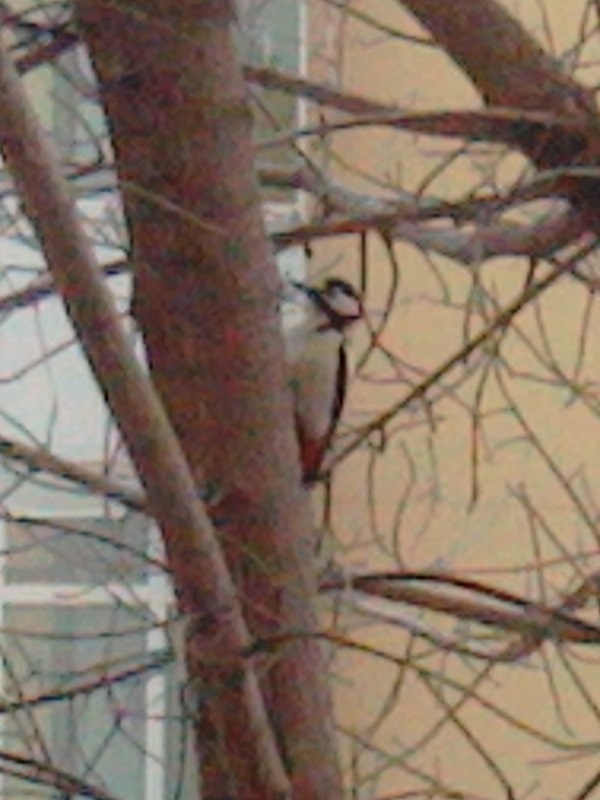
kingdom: Animalia
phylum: Chordata
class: Aves
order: Piciformes
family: Picidae
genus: Dendrocopos
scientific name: Dendrocopos major
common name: Great spotted woodpecker
